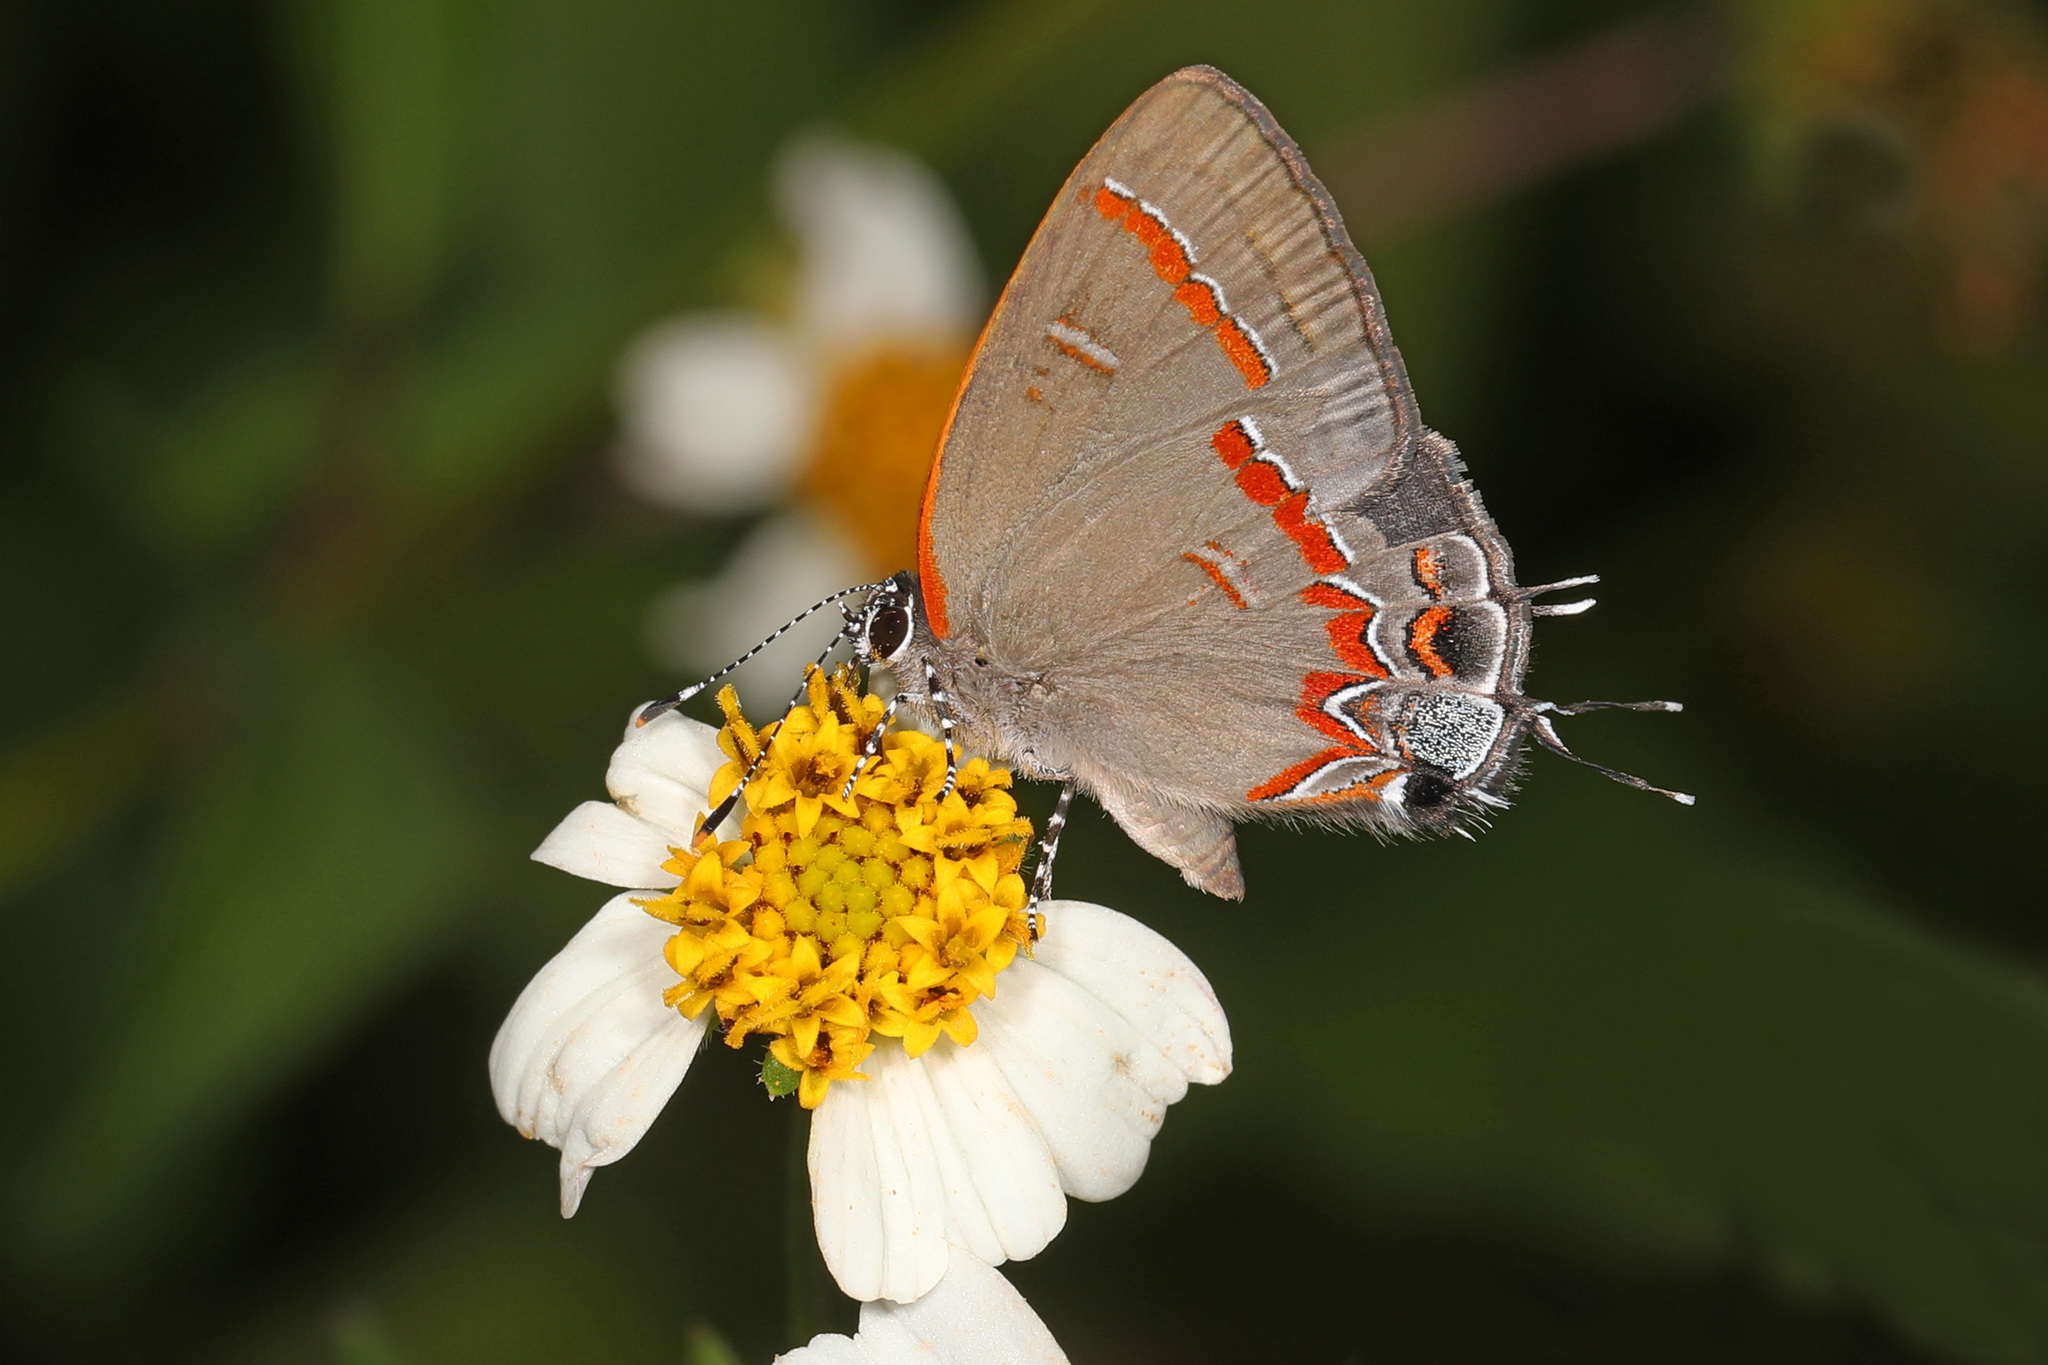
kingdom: Animalia
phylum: Arthropoda
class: Insecta
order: Lepidoptera
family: Lycaenidae
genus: Calycopis
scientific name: Calycopis cecrops
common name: Red-banded hairstreak
